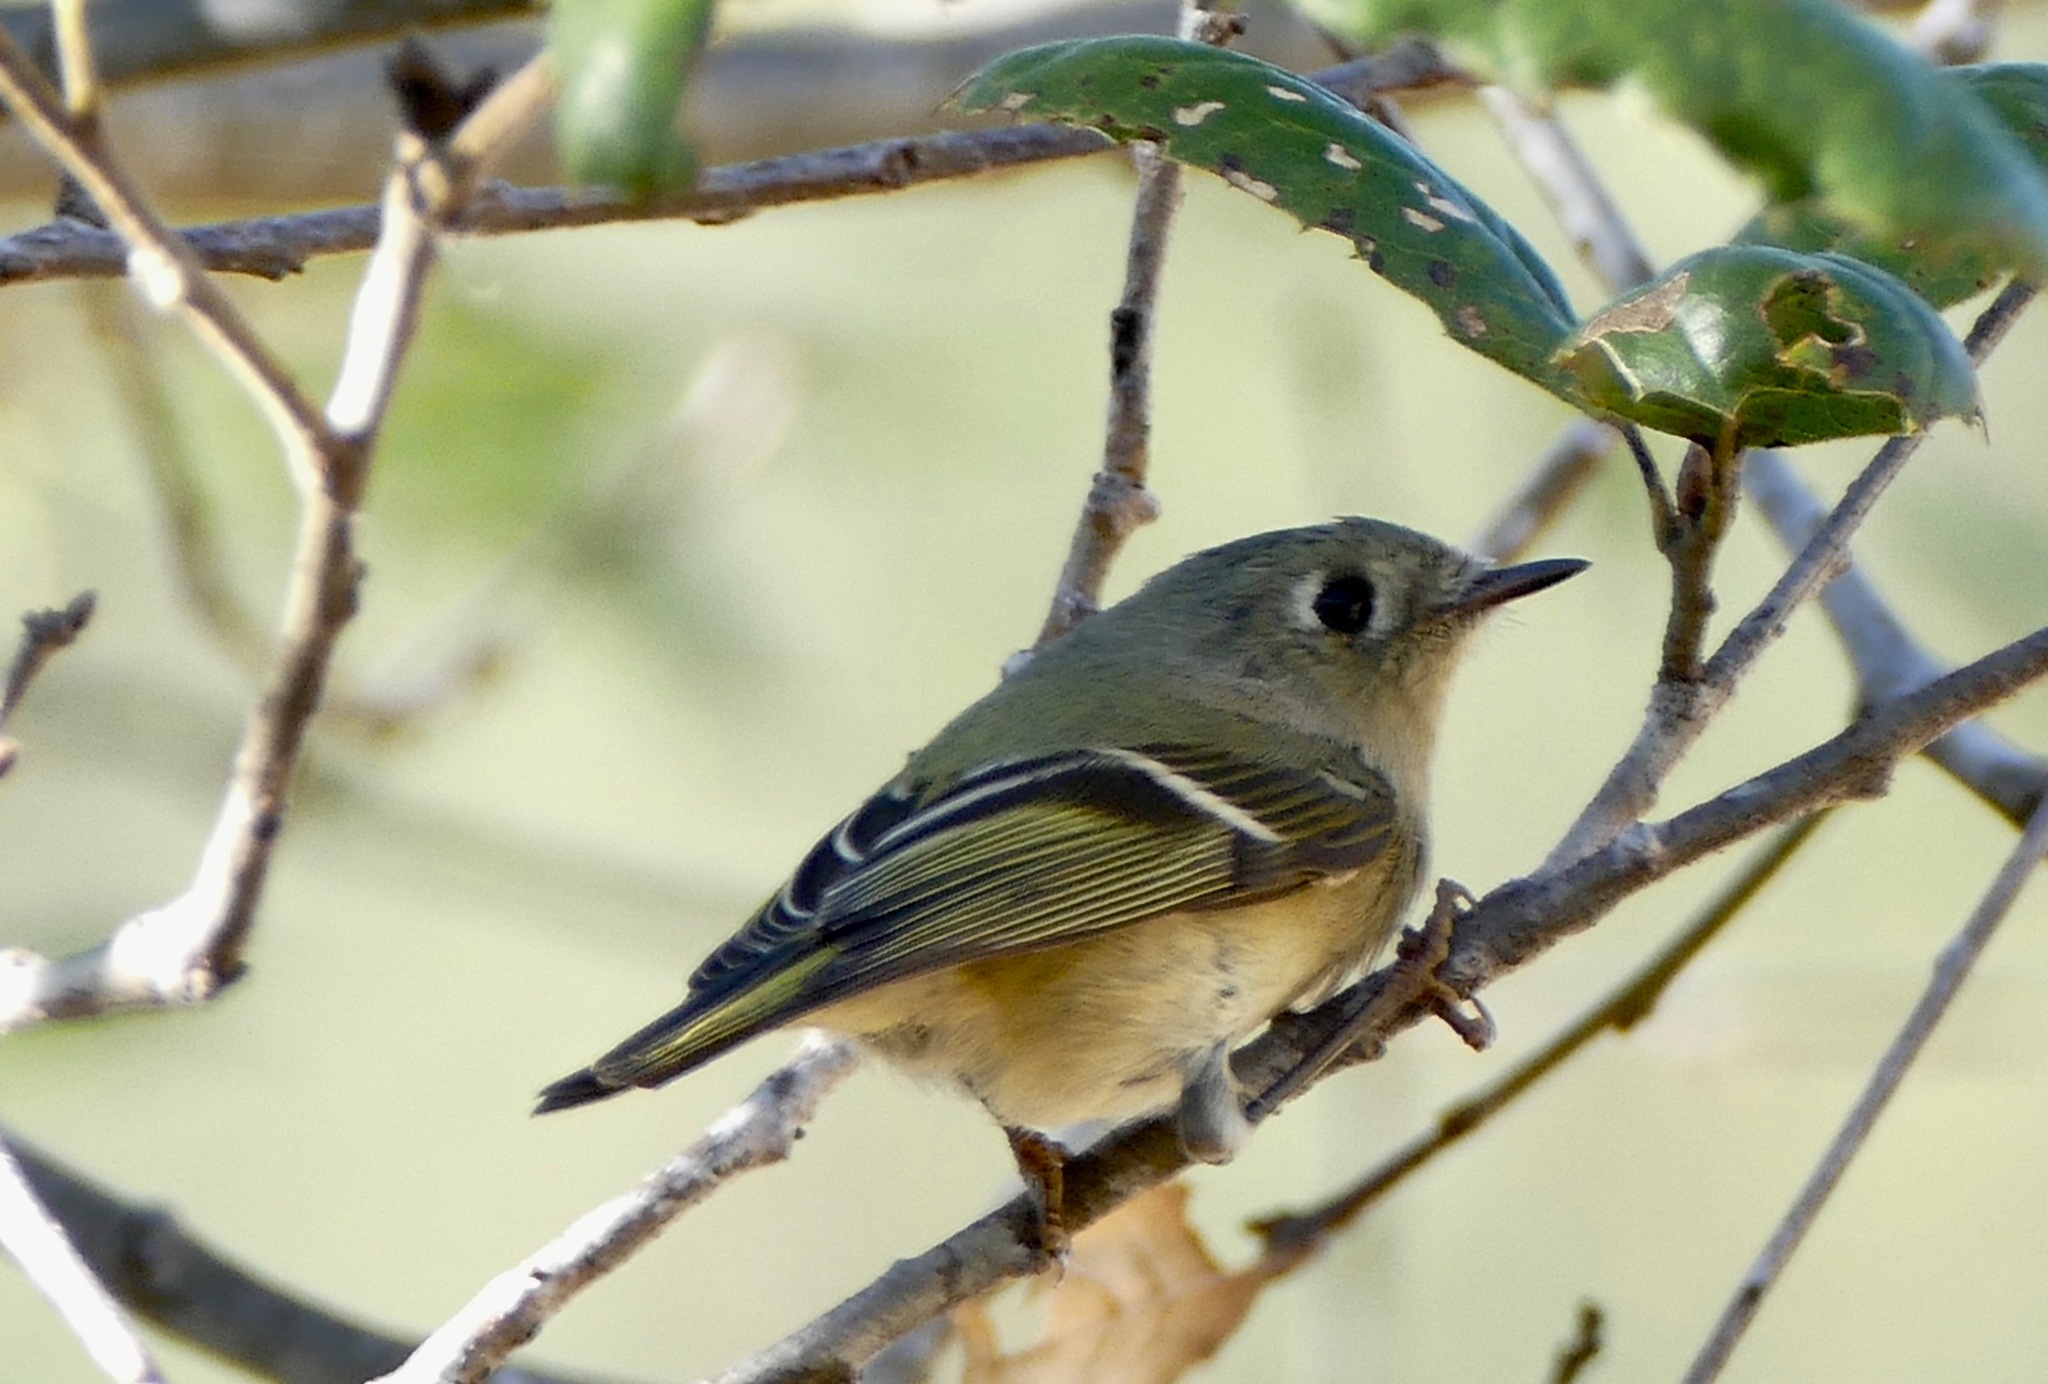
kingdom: Animalia
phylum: Chordata
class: Aves
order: Passeriformes
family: Regulidae
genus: Regulus
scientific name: Regulus calendula
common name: Ruby-crowned kinglet
